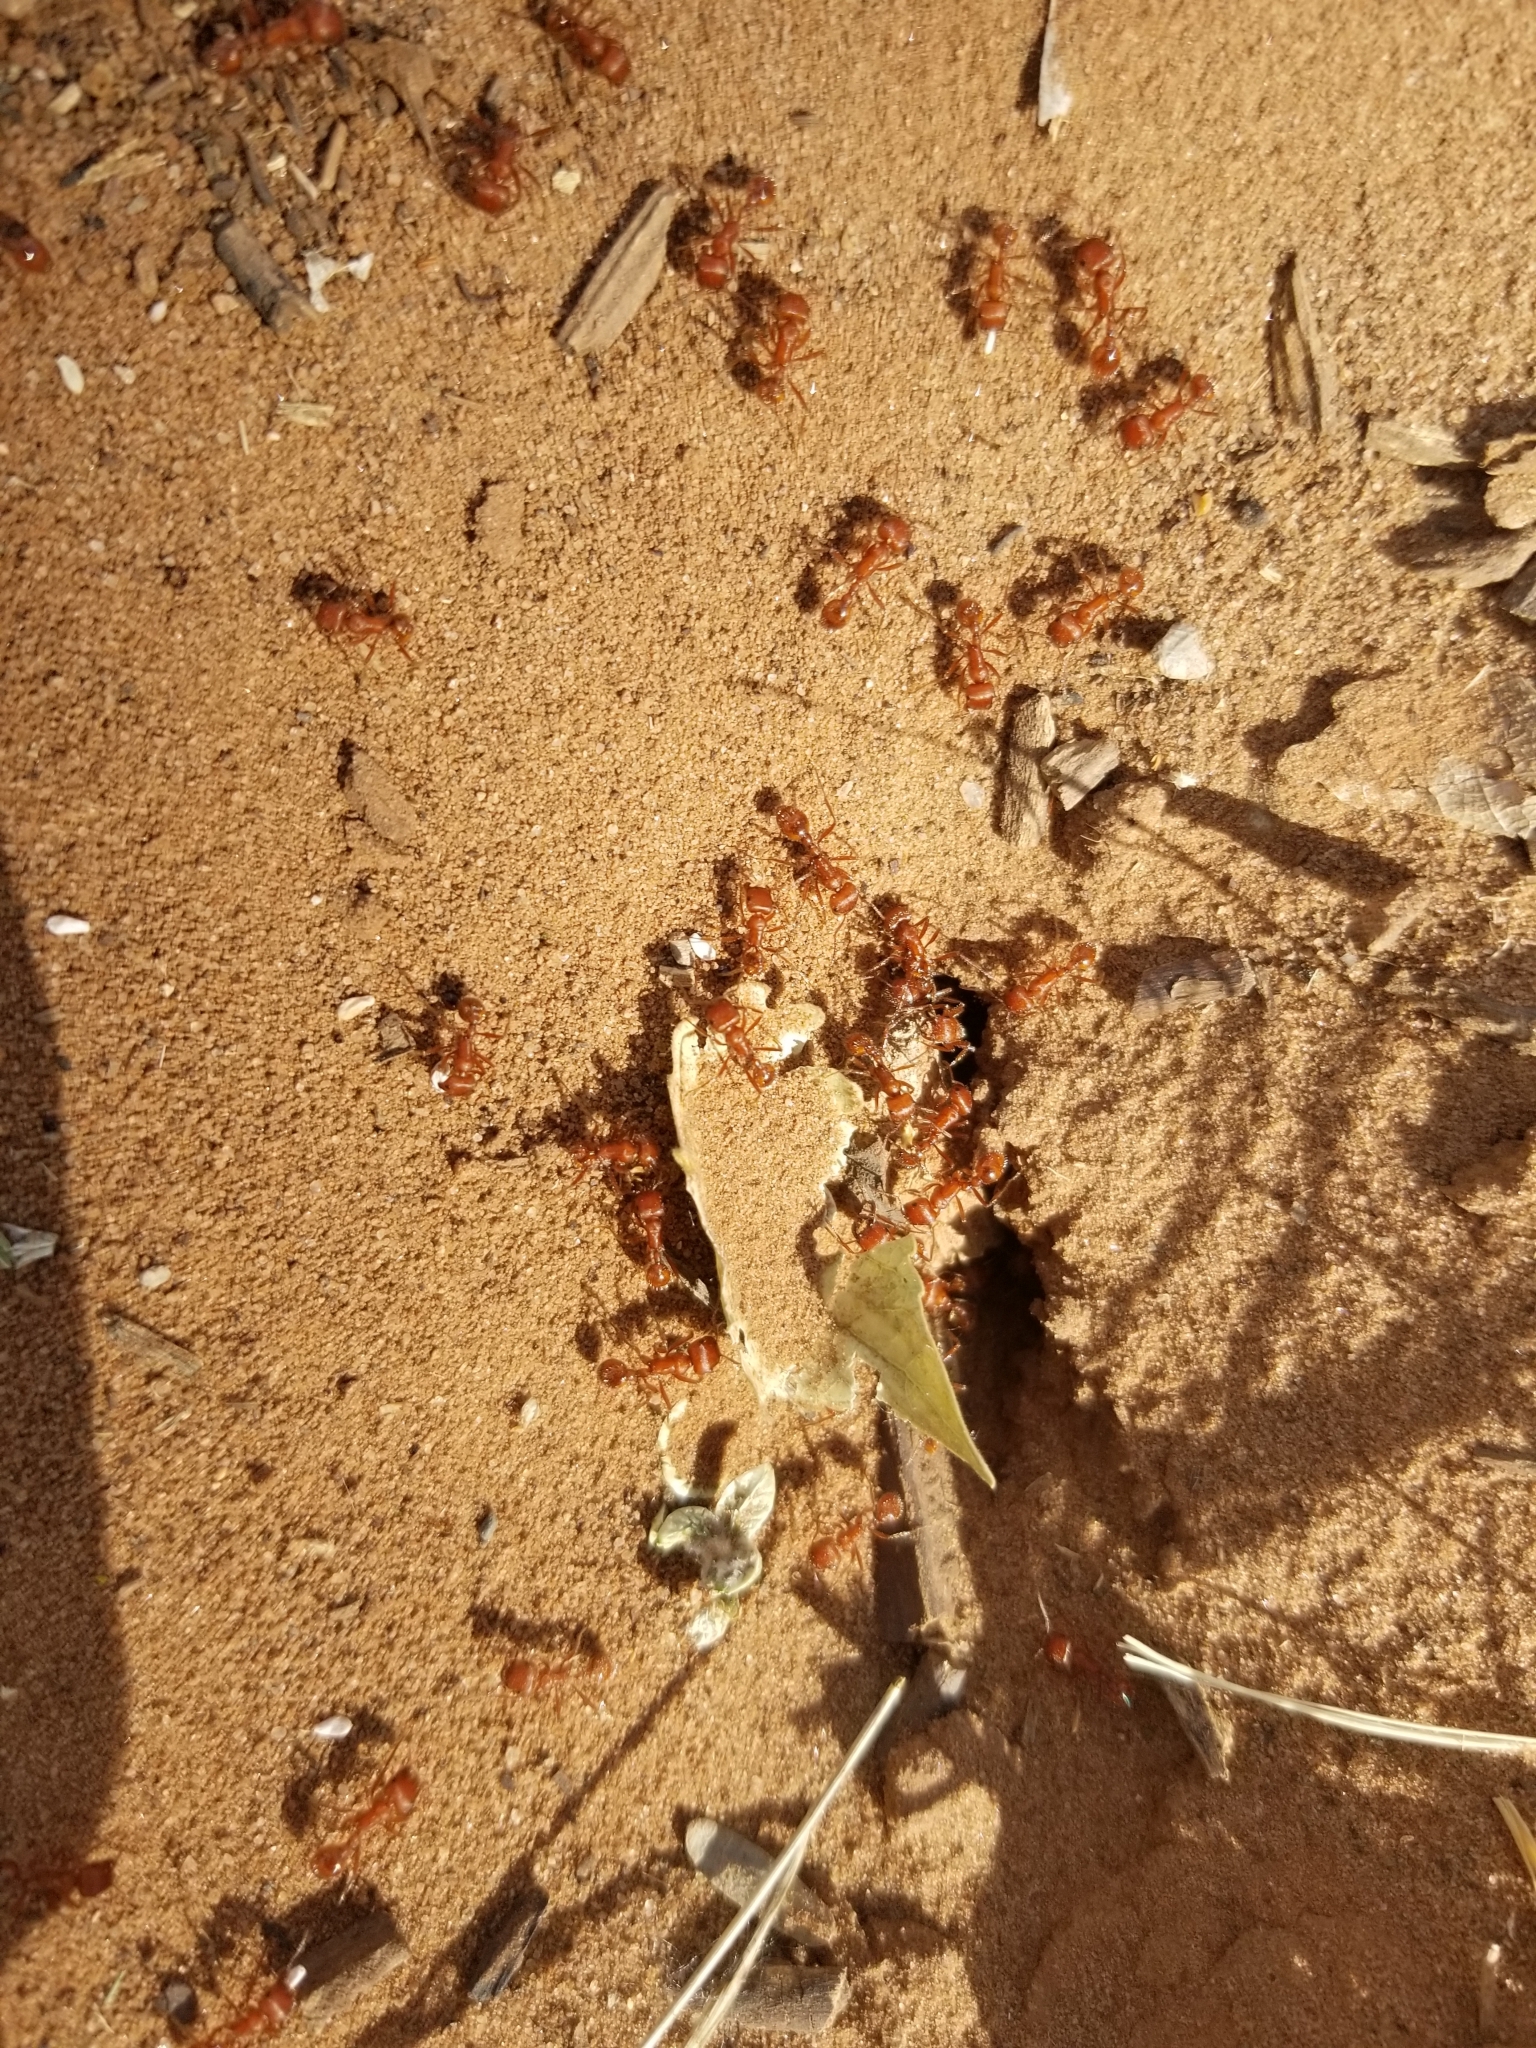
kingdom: Animalia
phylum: Arthropoda
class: Insecta
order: Hymenoptera
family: Formicidae
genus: Pogonomyrmex
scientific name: Pogonomyrmex maricopa
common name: Maricopa harvester ant
